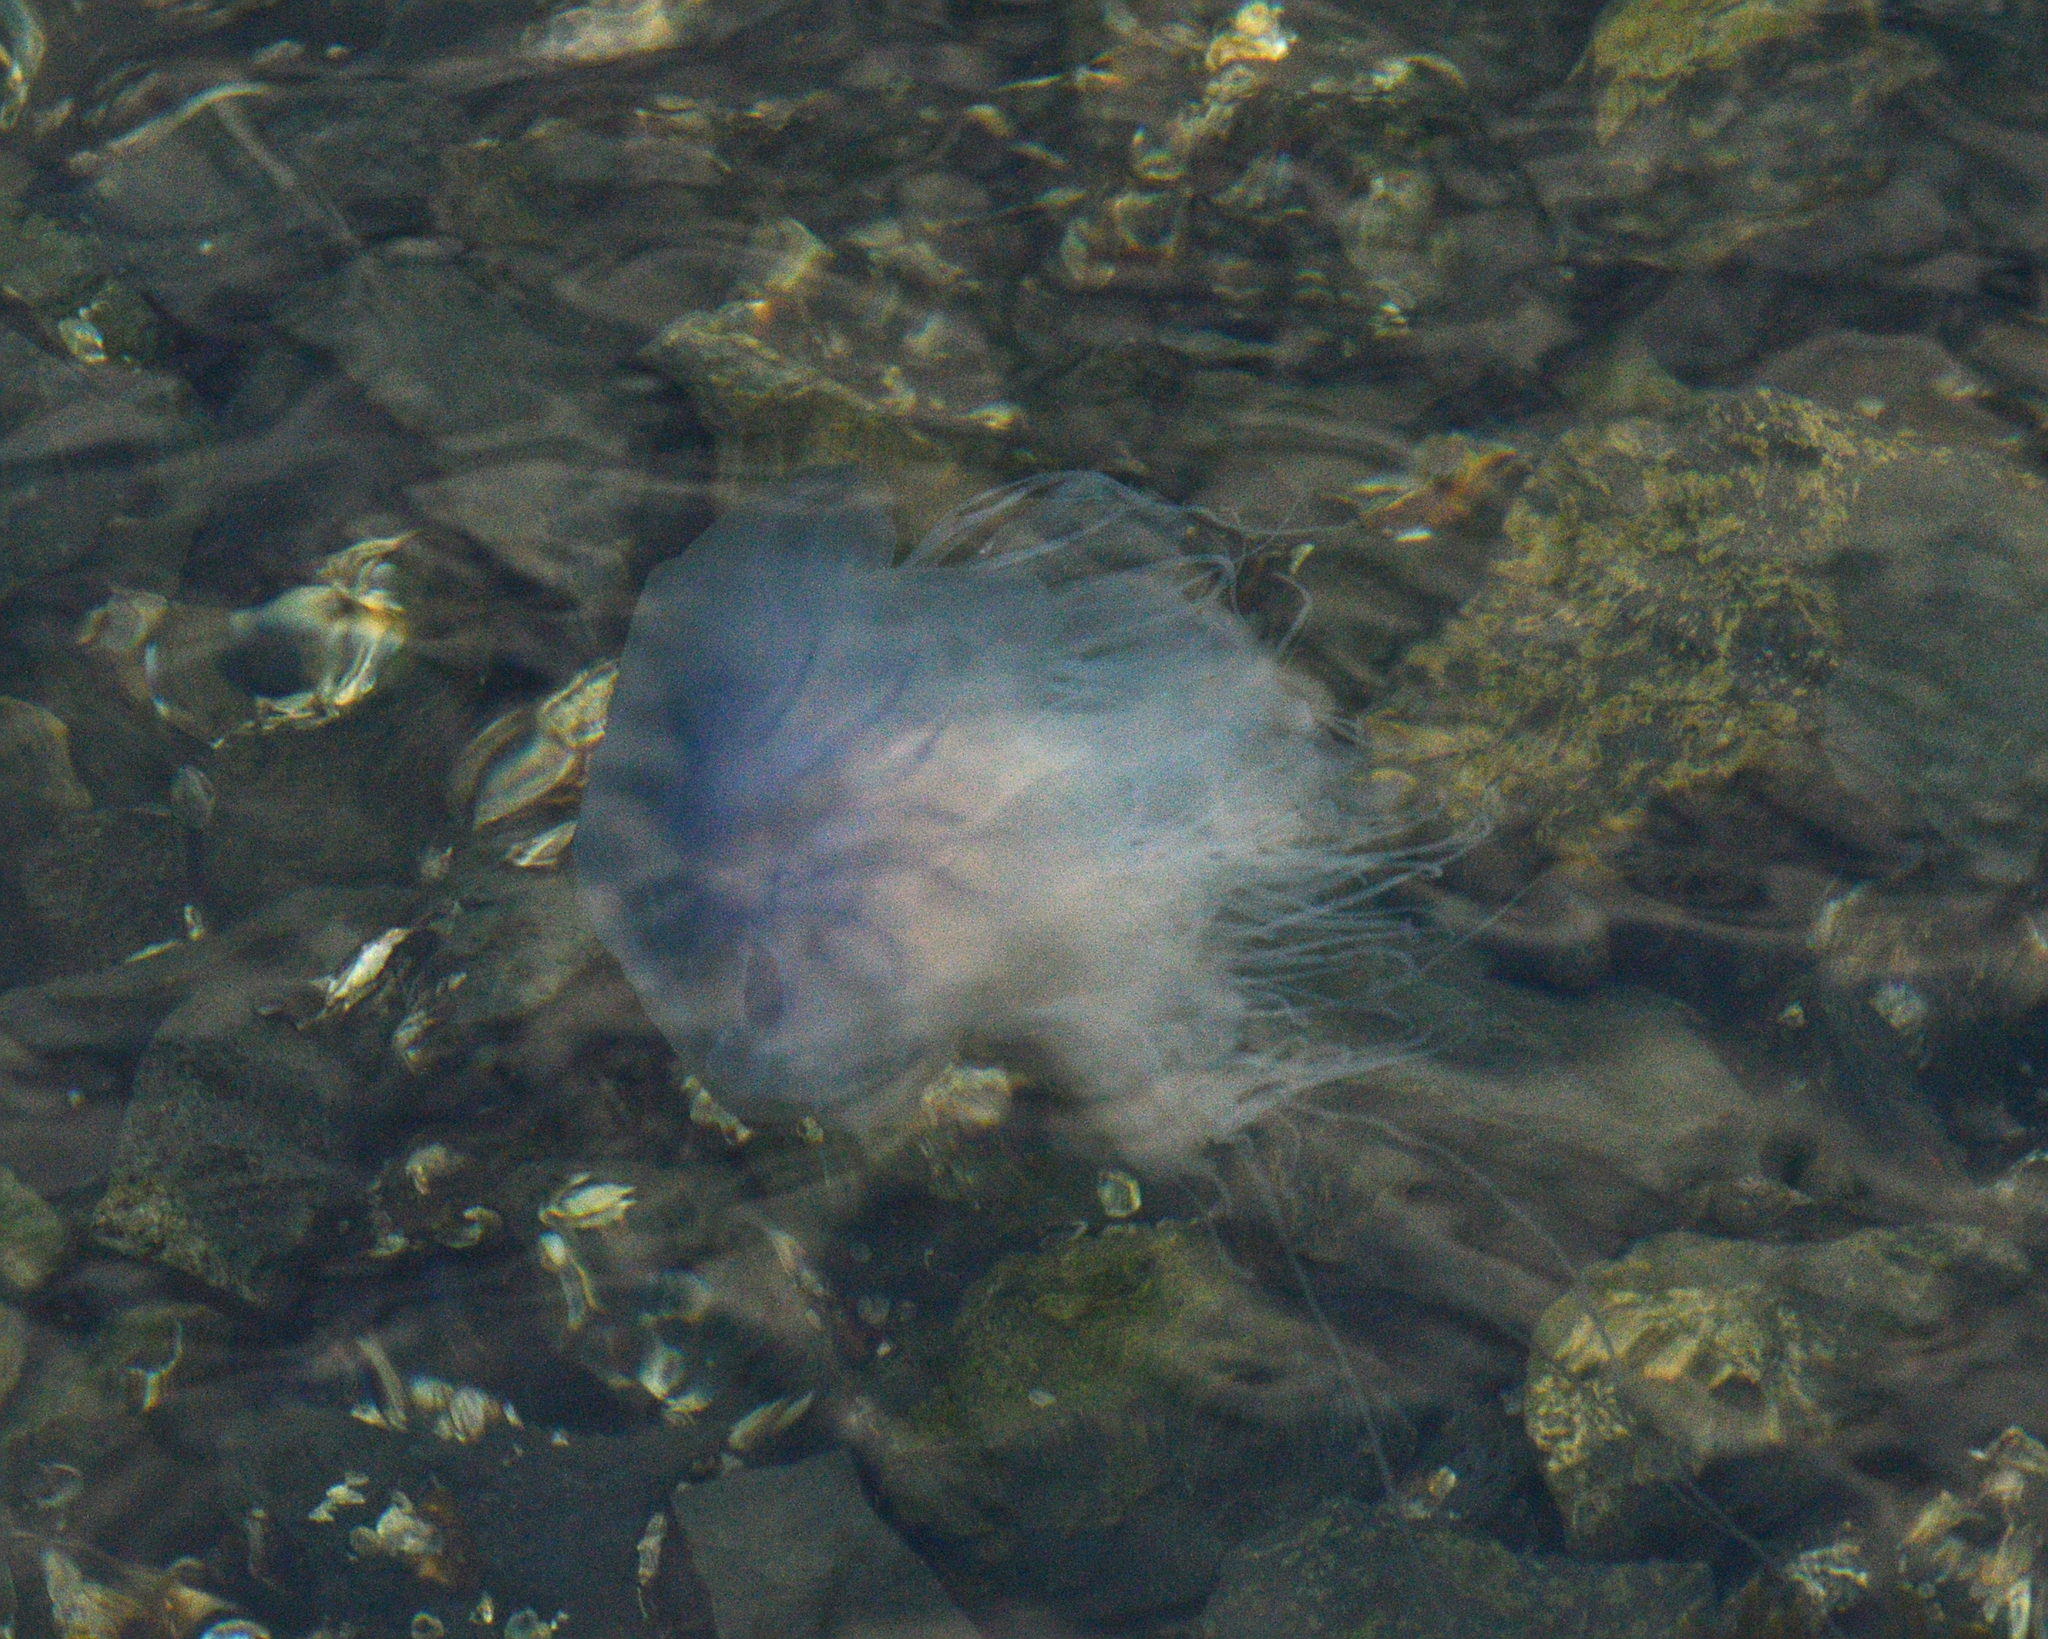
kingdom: Animalia
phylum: Cnidaria
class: Scyphozoa
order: Semaeostomeae
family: Cyaneidae
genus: Cyanea
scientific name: Cyanea lamarckii
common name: Blue jellyfish
